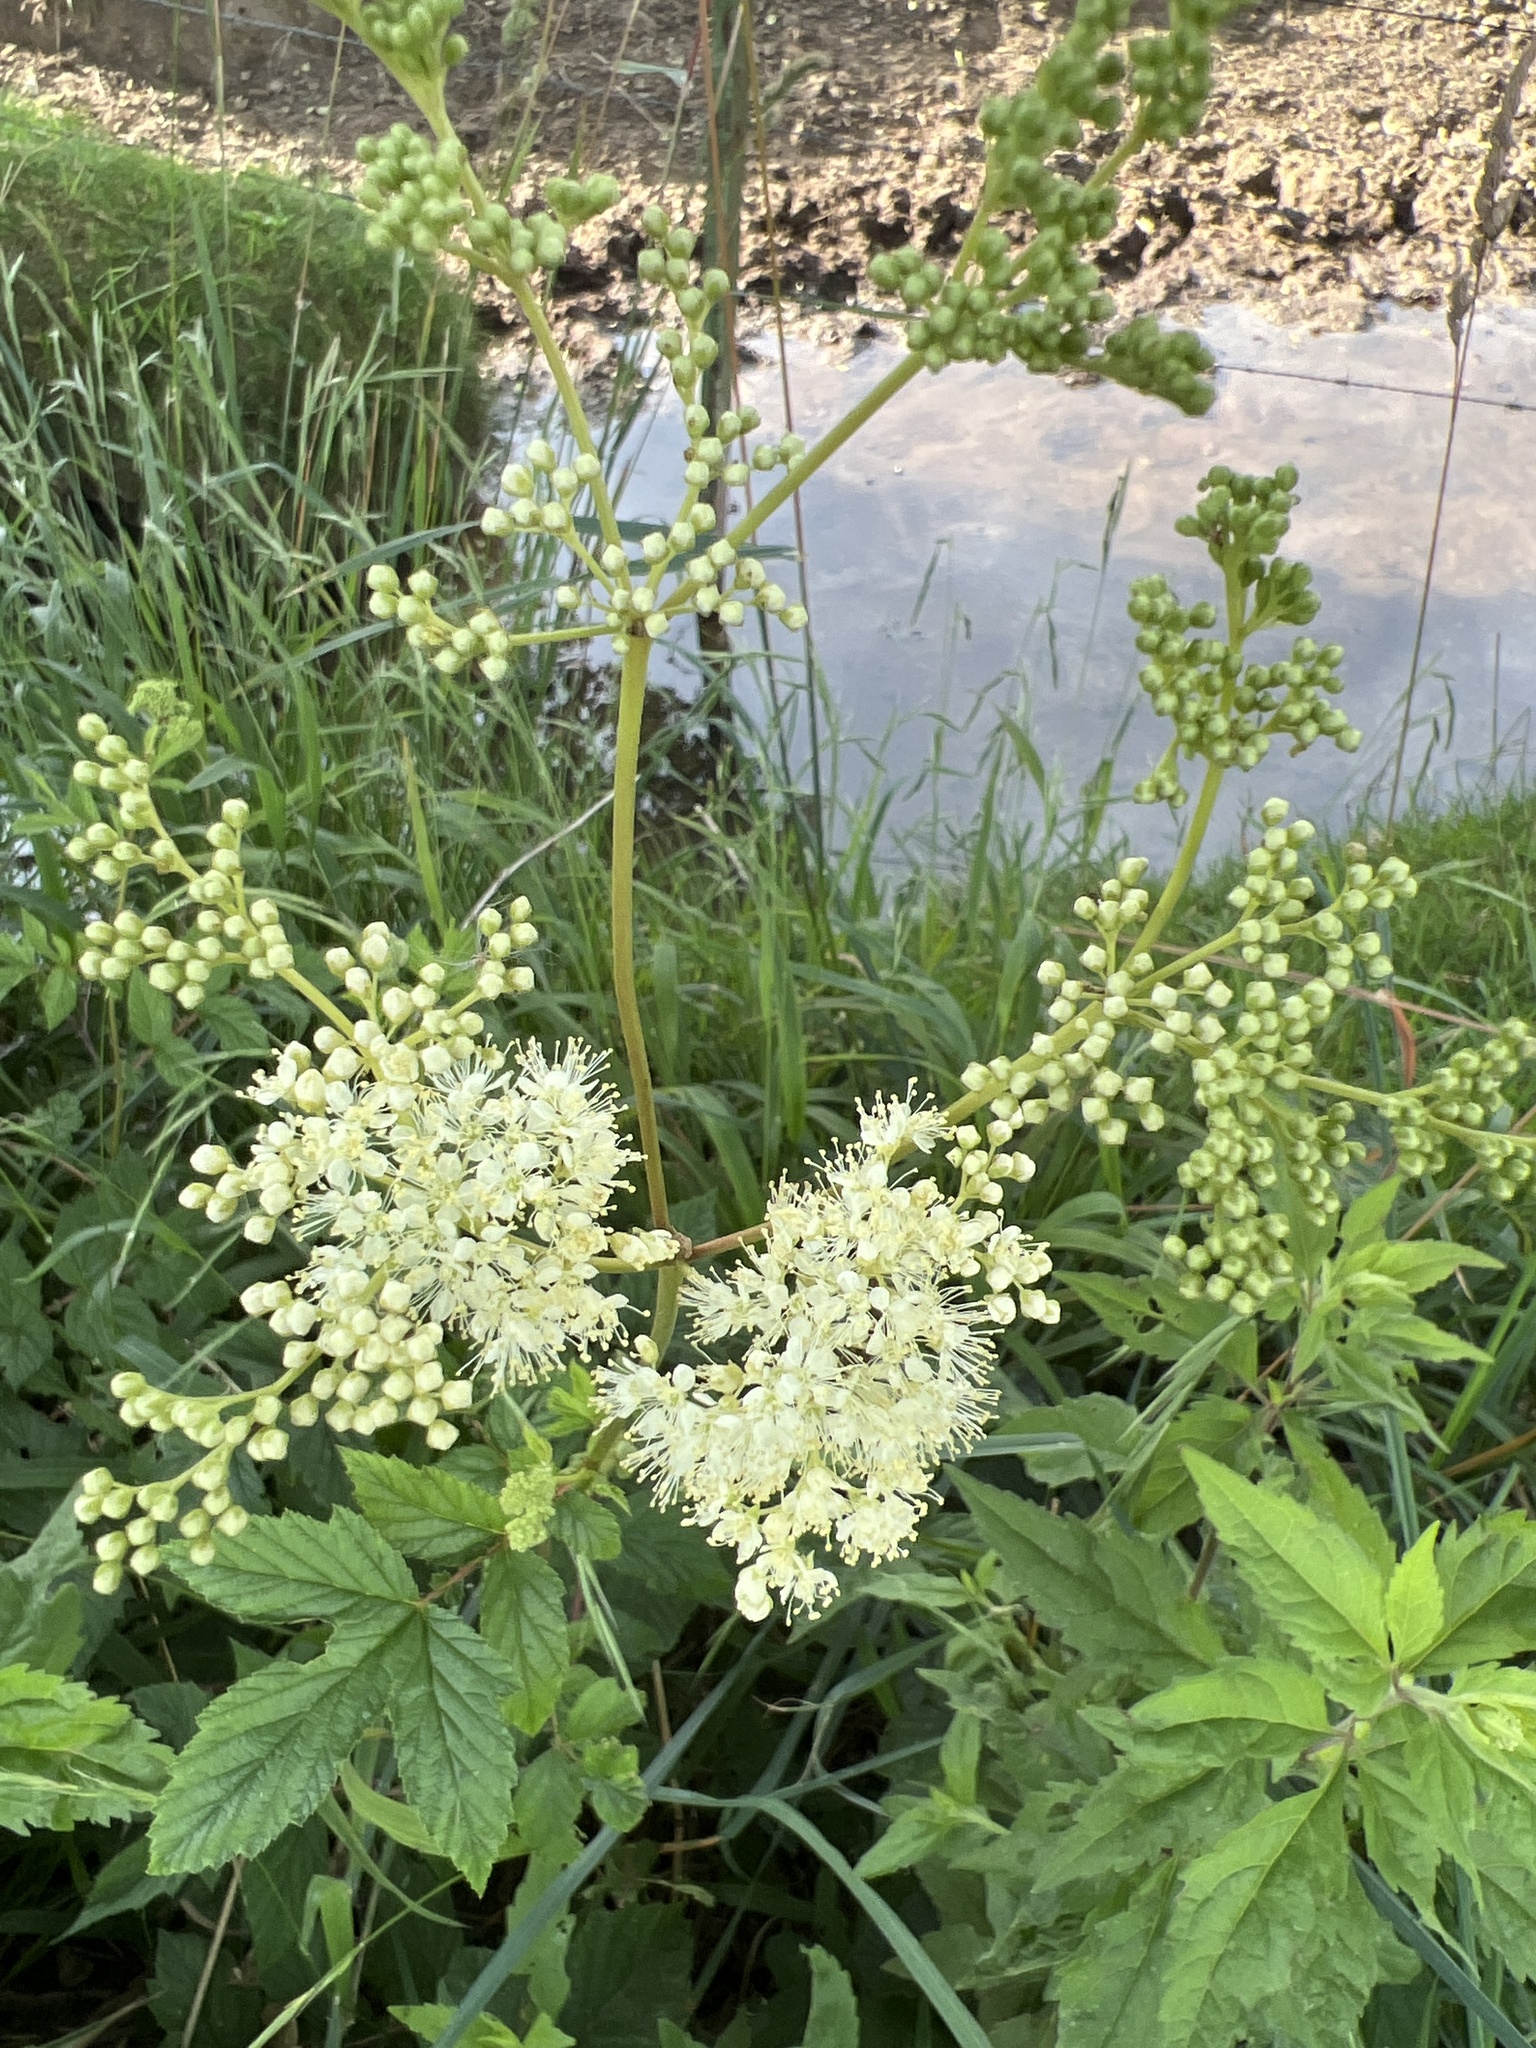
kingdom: Plantae
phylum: Tracheophyta
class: Magnoliopsida
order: Rosales
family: Rosaceae
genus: Filipendula
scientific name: Filipendula ulmaria
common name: Meadowsweet
